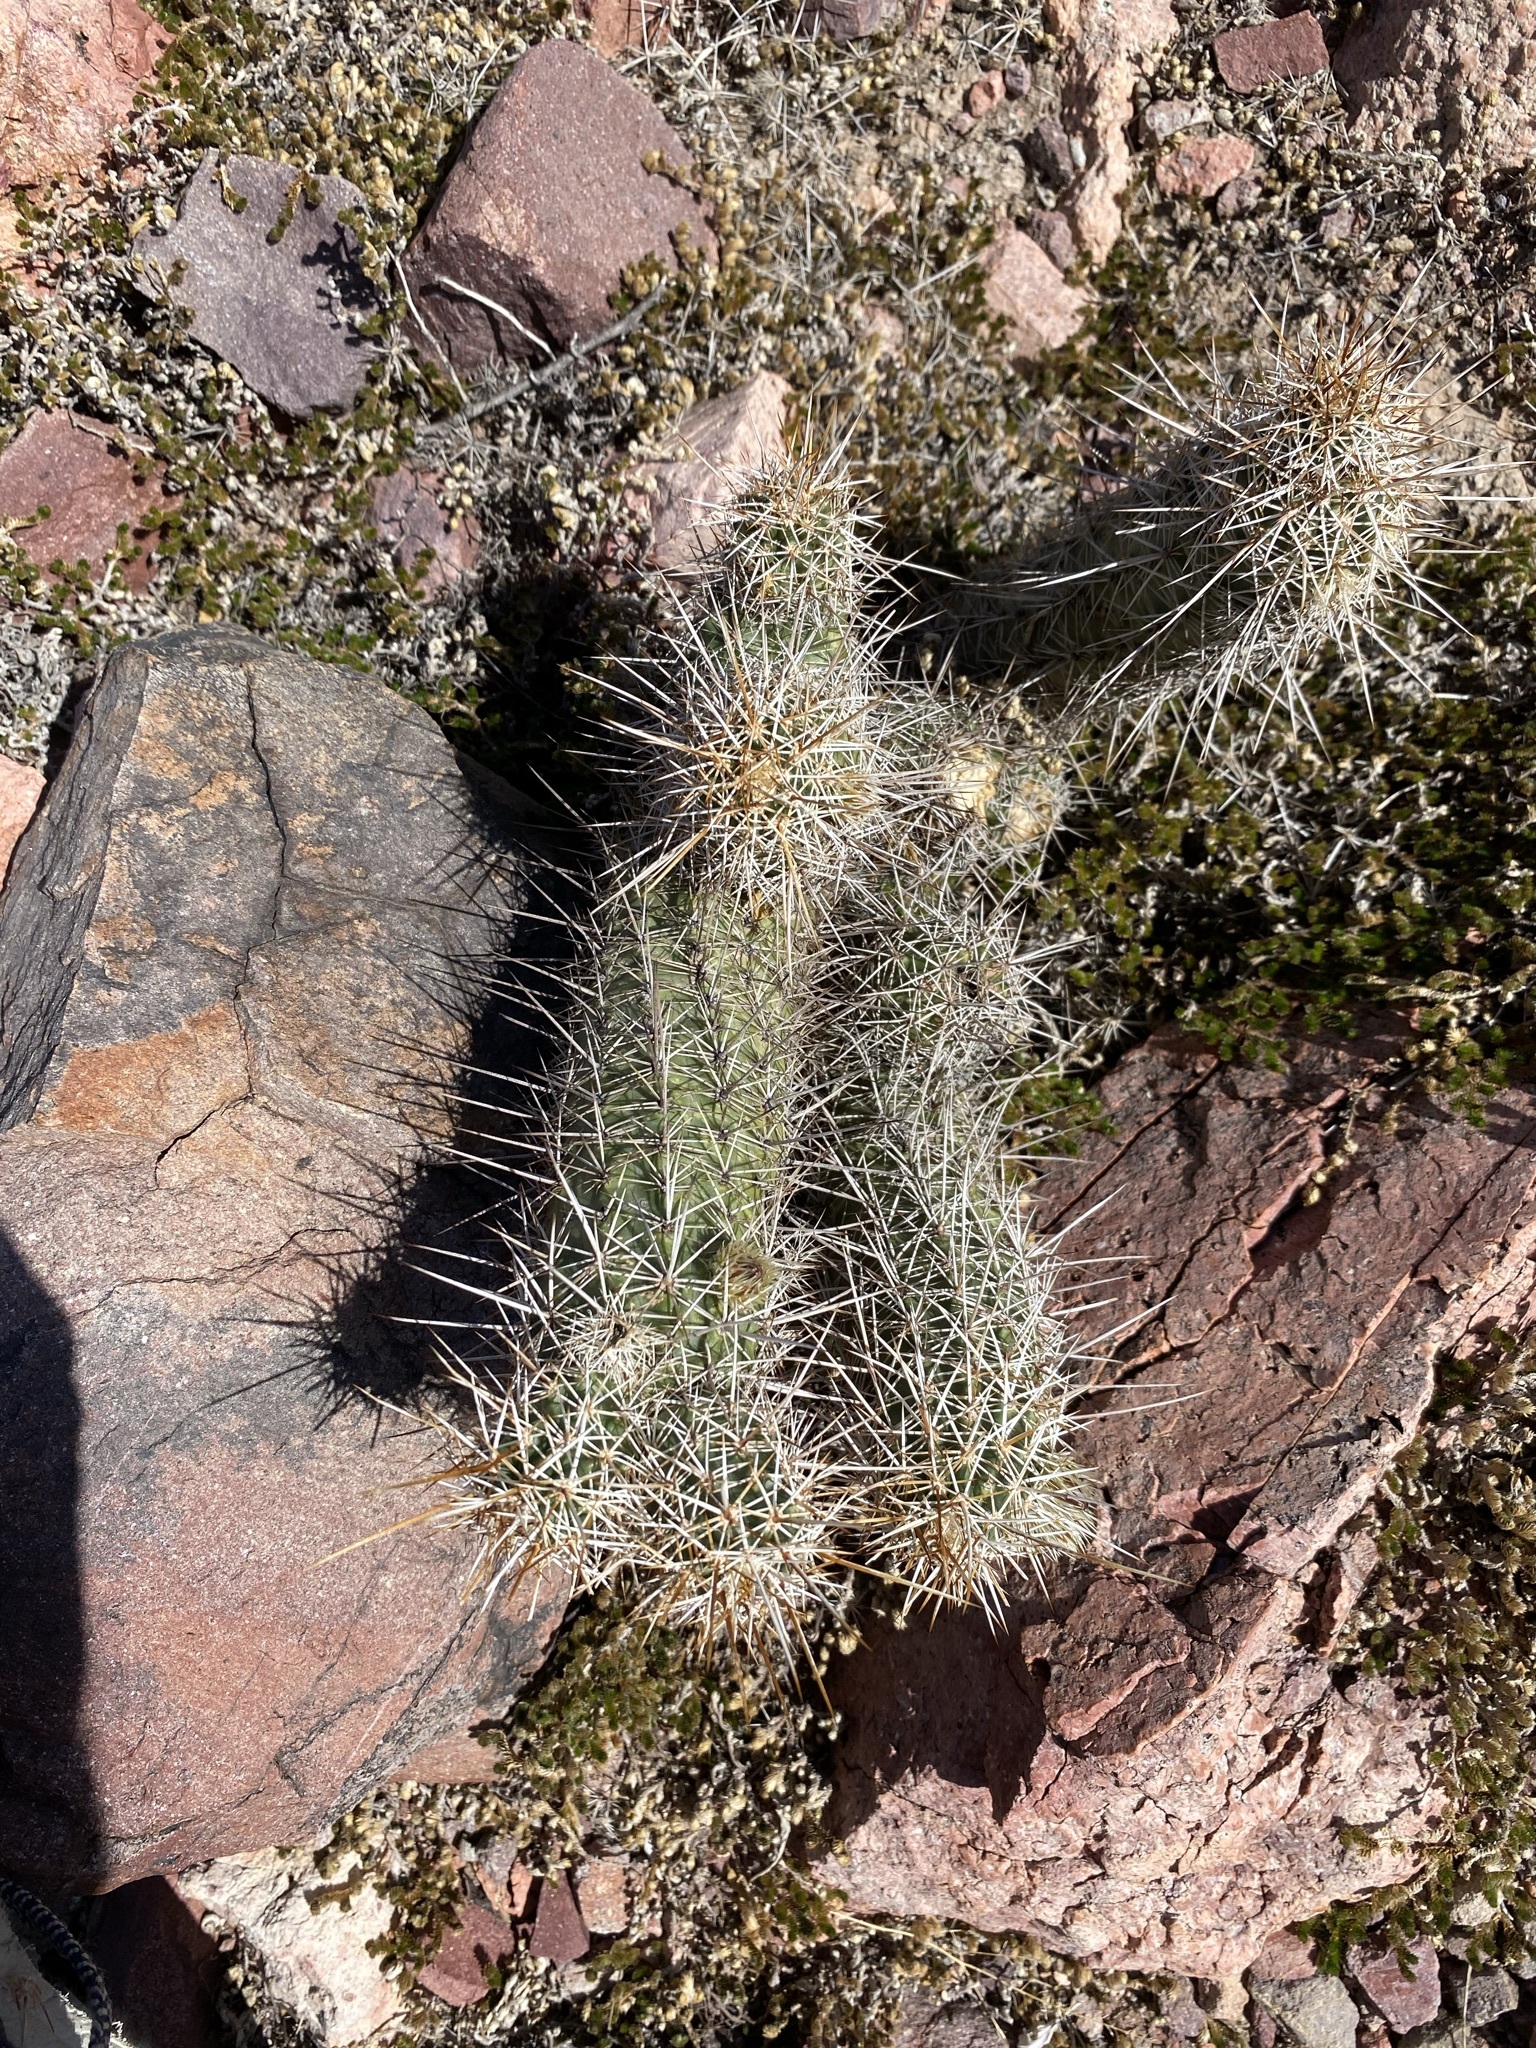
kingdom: Plantae
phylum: Tracheophyta
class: Magnoliopsida
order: Caryophyllales
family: Cactaceae
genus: Echinocereus
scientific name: Echinocereus fasciculatus
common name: Bundle hedgehog
